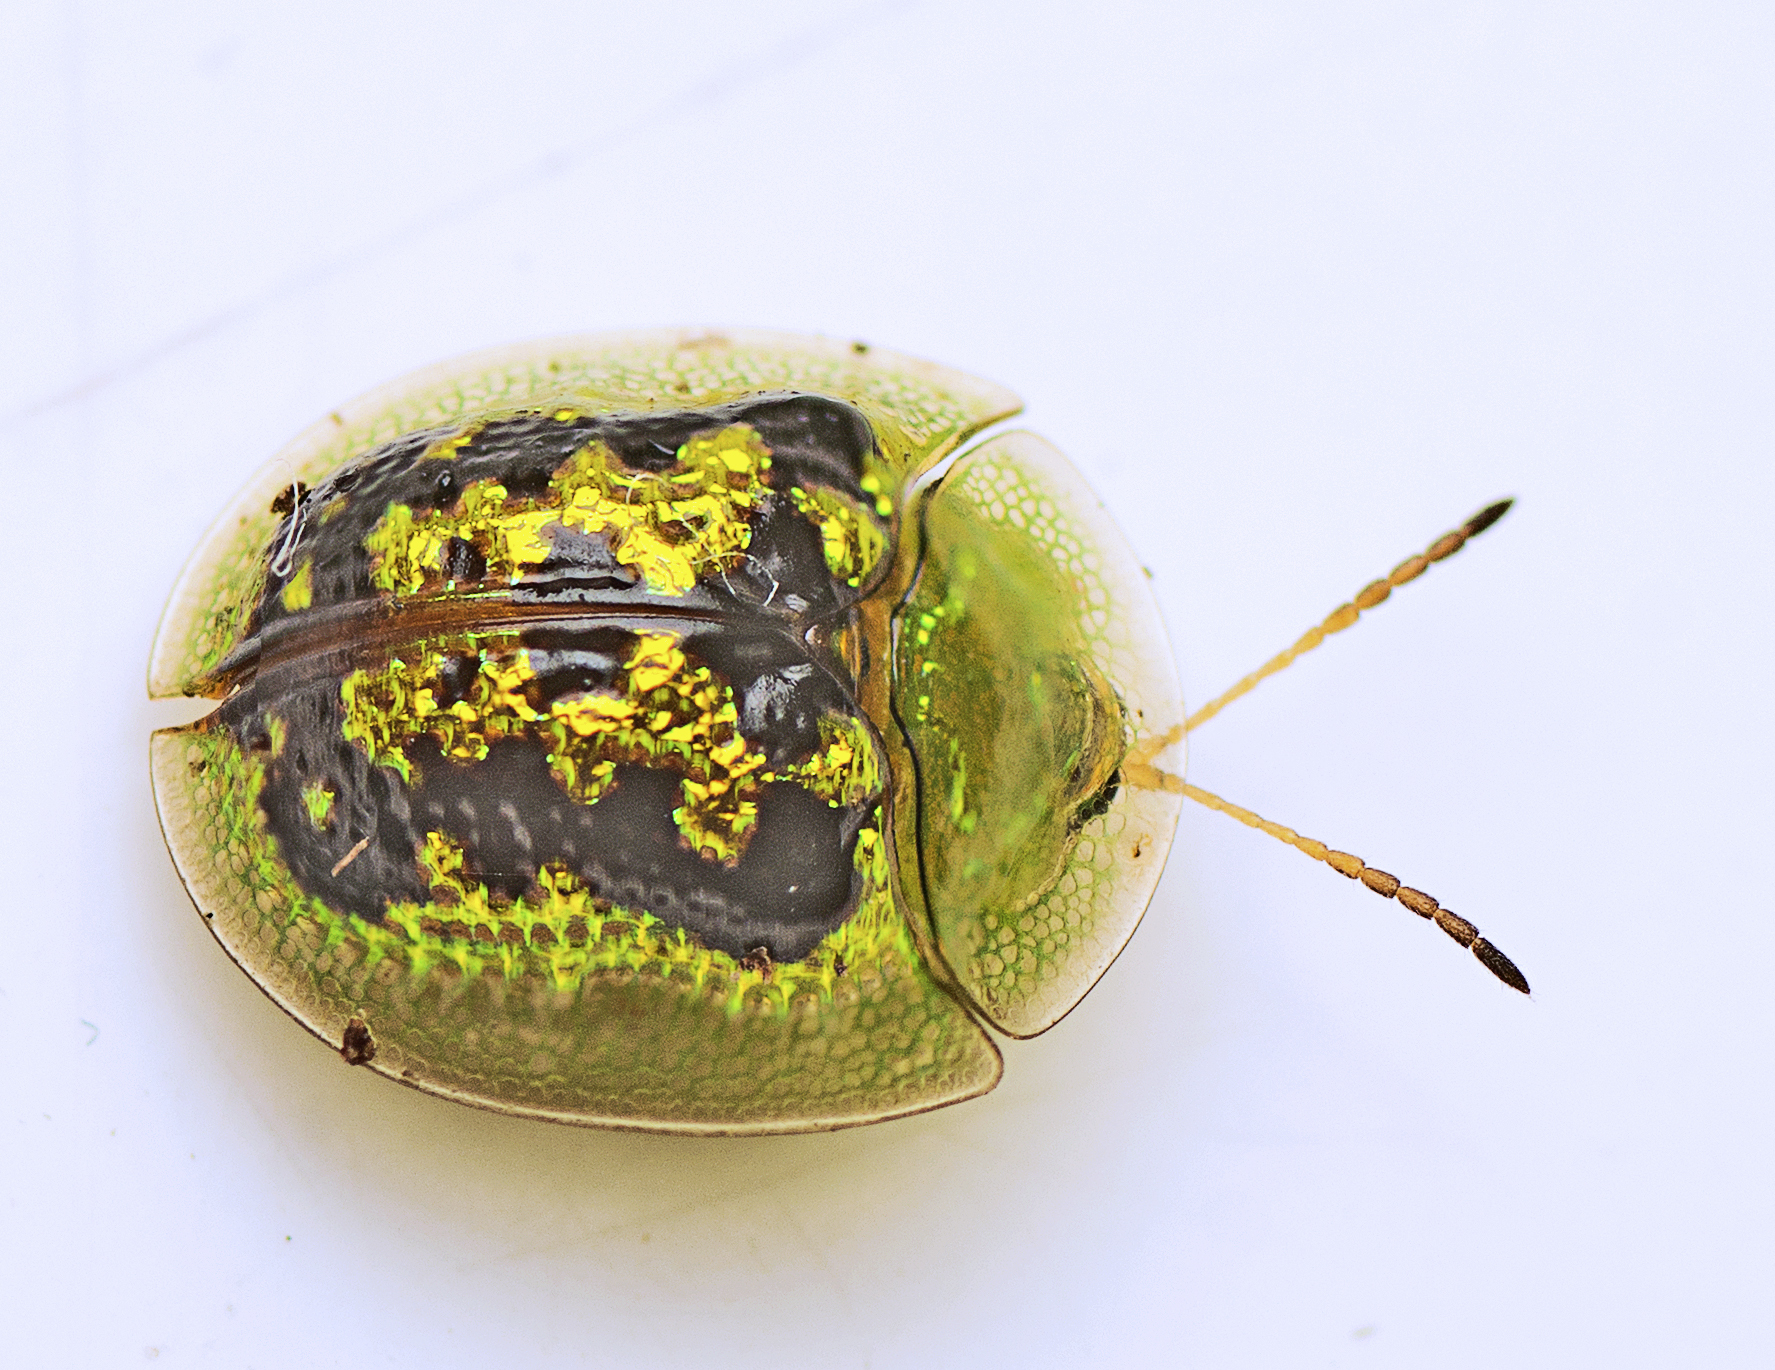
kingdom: Animalia
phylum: Arthropoda
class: Insecta
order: Coleoptera
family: Chrysomelidae
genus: Cassida
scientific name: Cassida diomma
